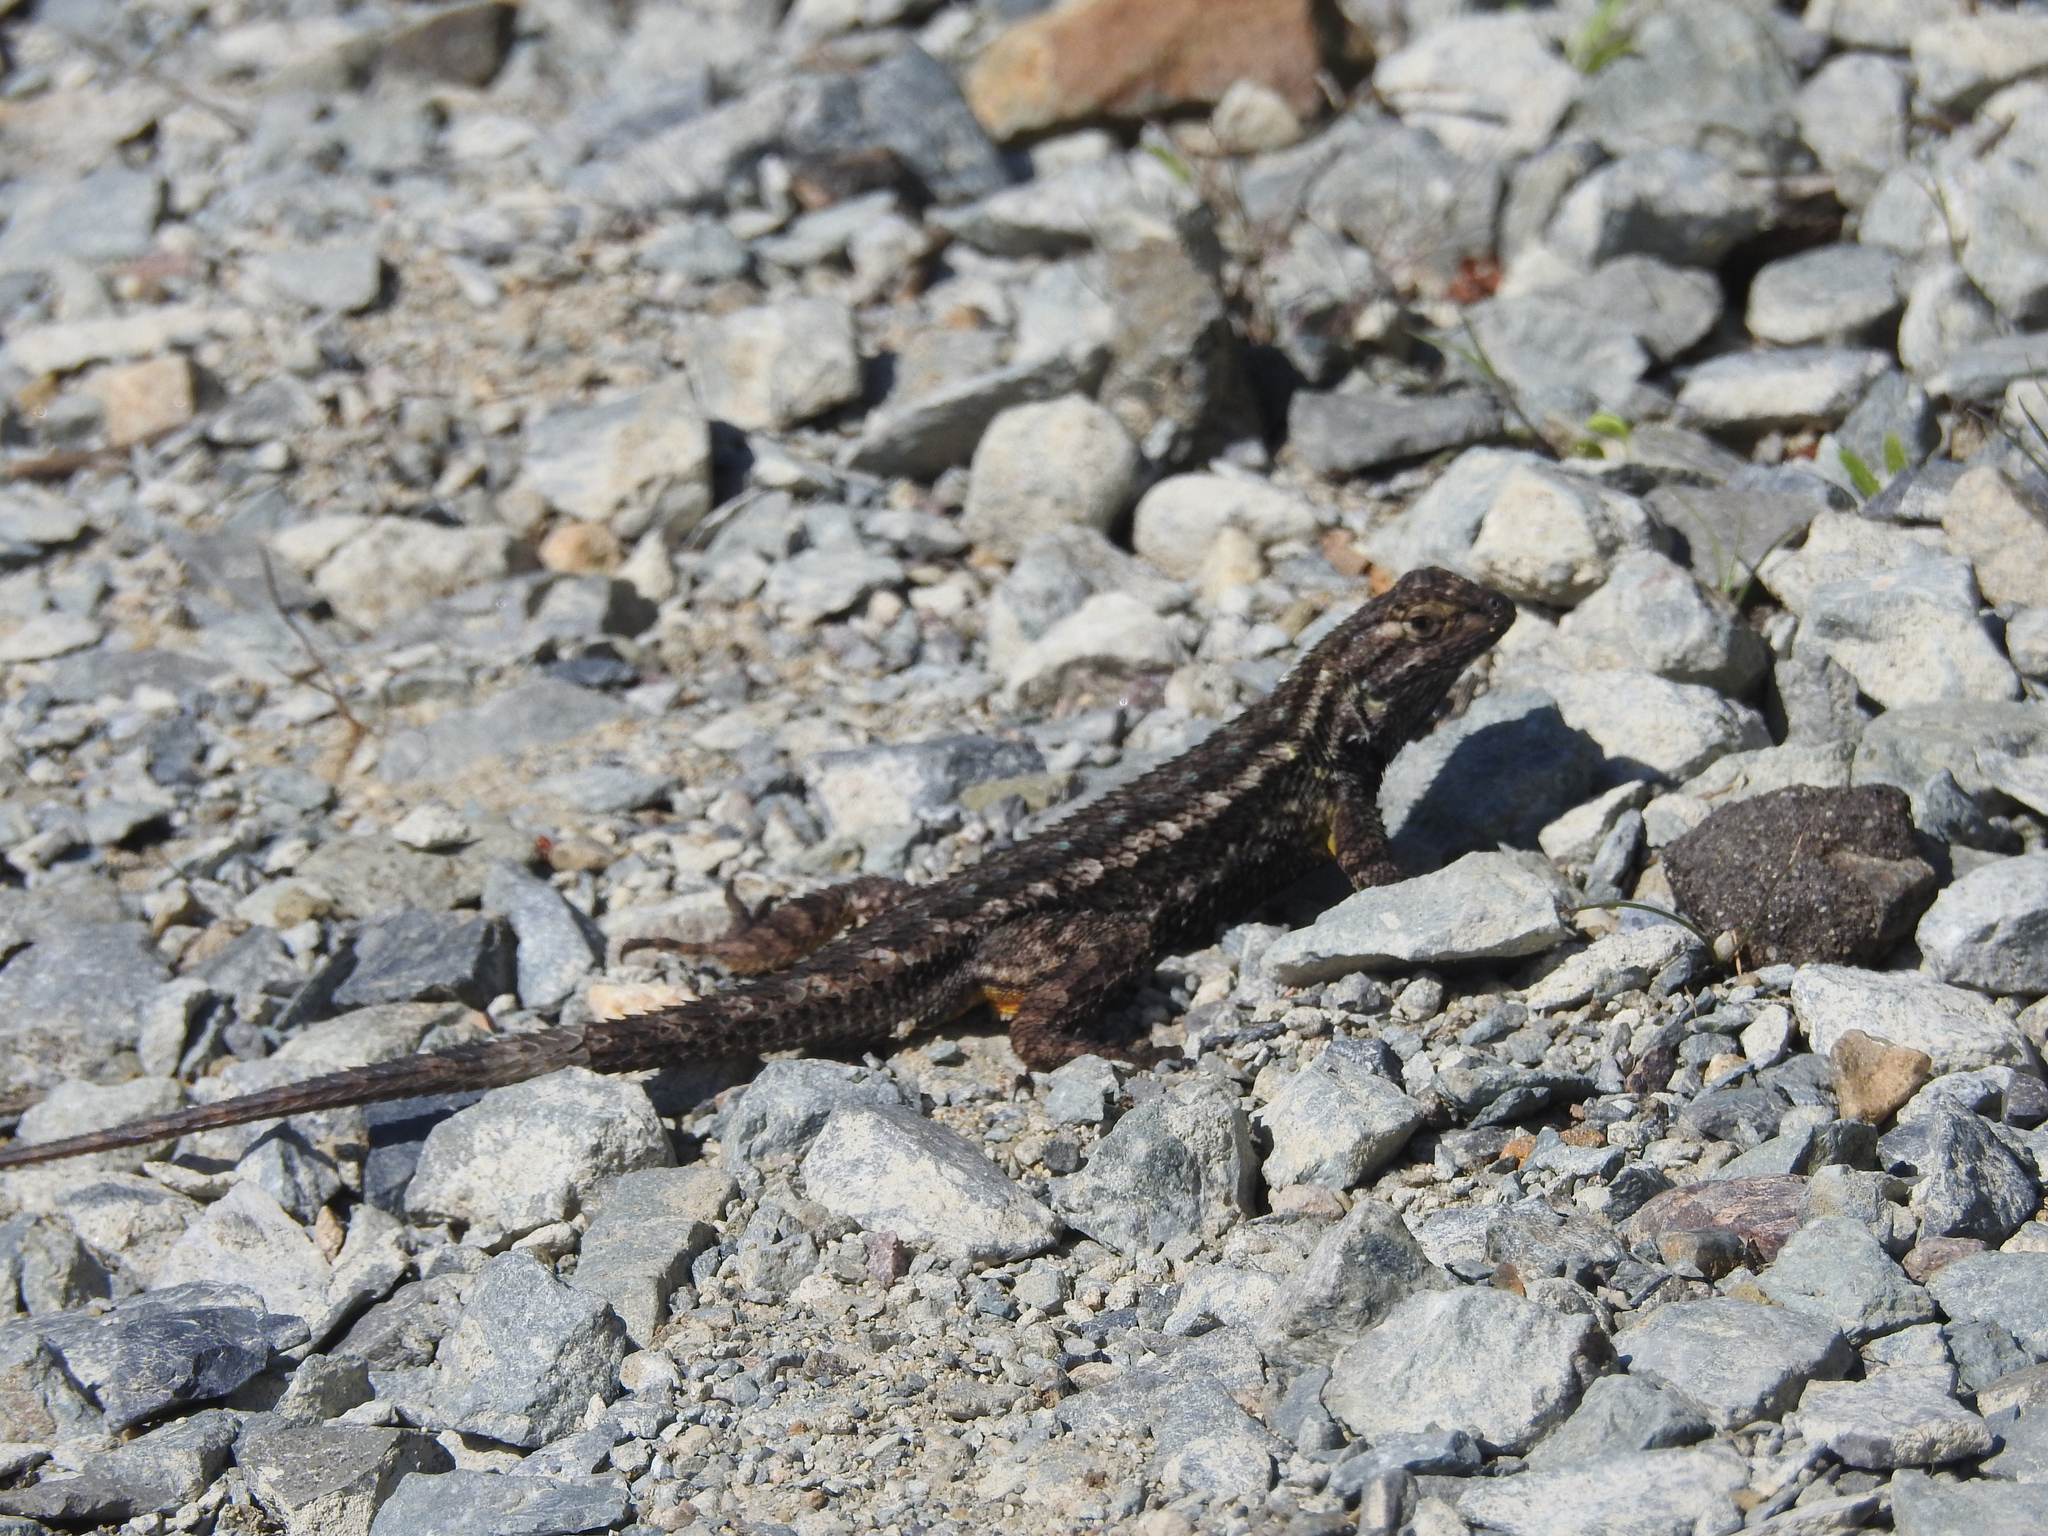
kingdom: Animalia
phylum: Chordata
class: Squamata
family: Phrynosomatidae
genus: Sceloporus
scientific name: Sceloporus occidentalis
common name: Western fence lizard
